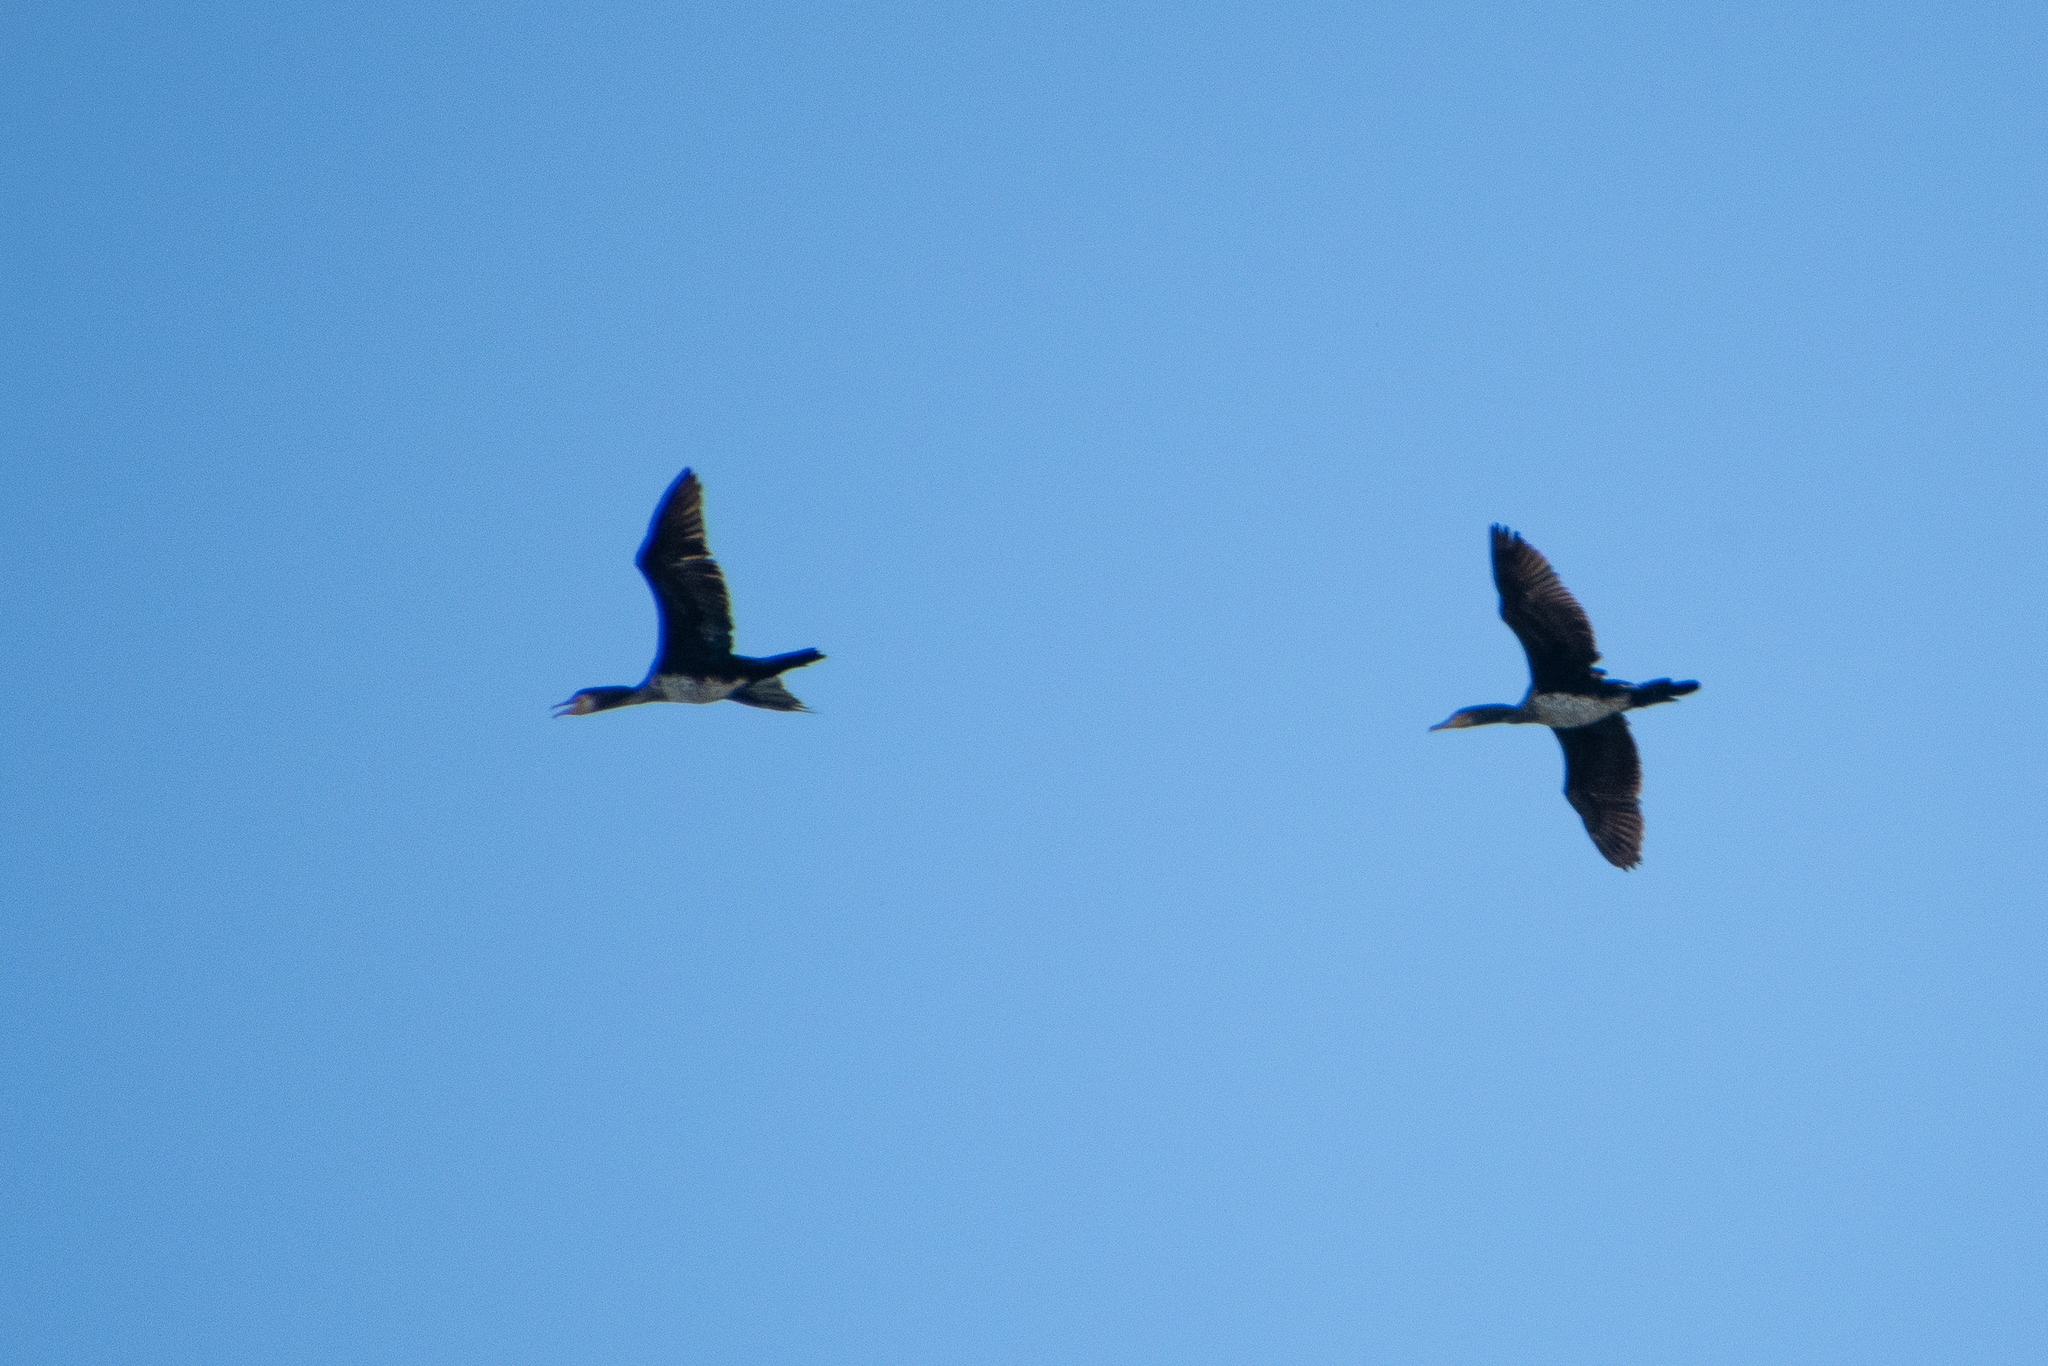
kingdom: Animalia
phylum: Chordata
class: Aves
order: Suliformes
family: Phalacrocoracidae
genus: Phalacrocorax
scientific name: Phalacrocorax carbo
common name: Great cormorant
